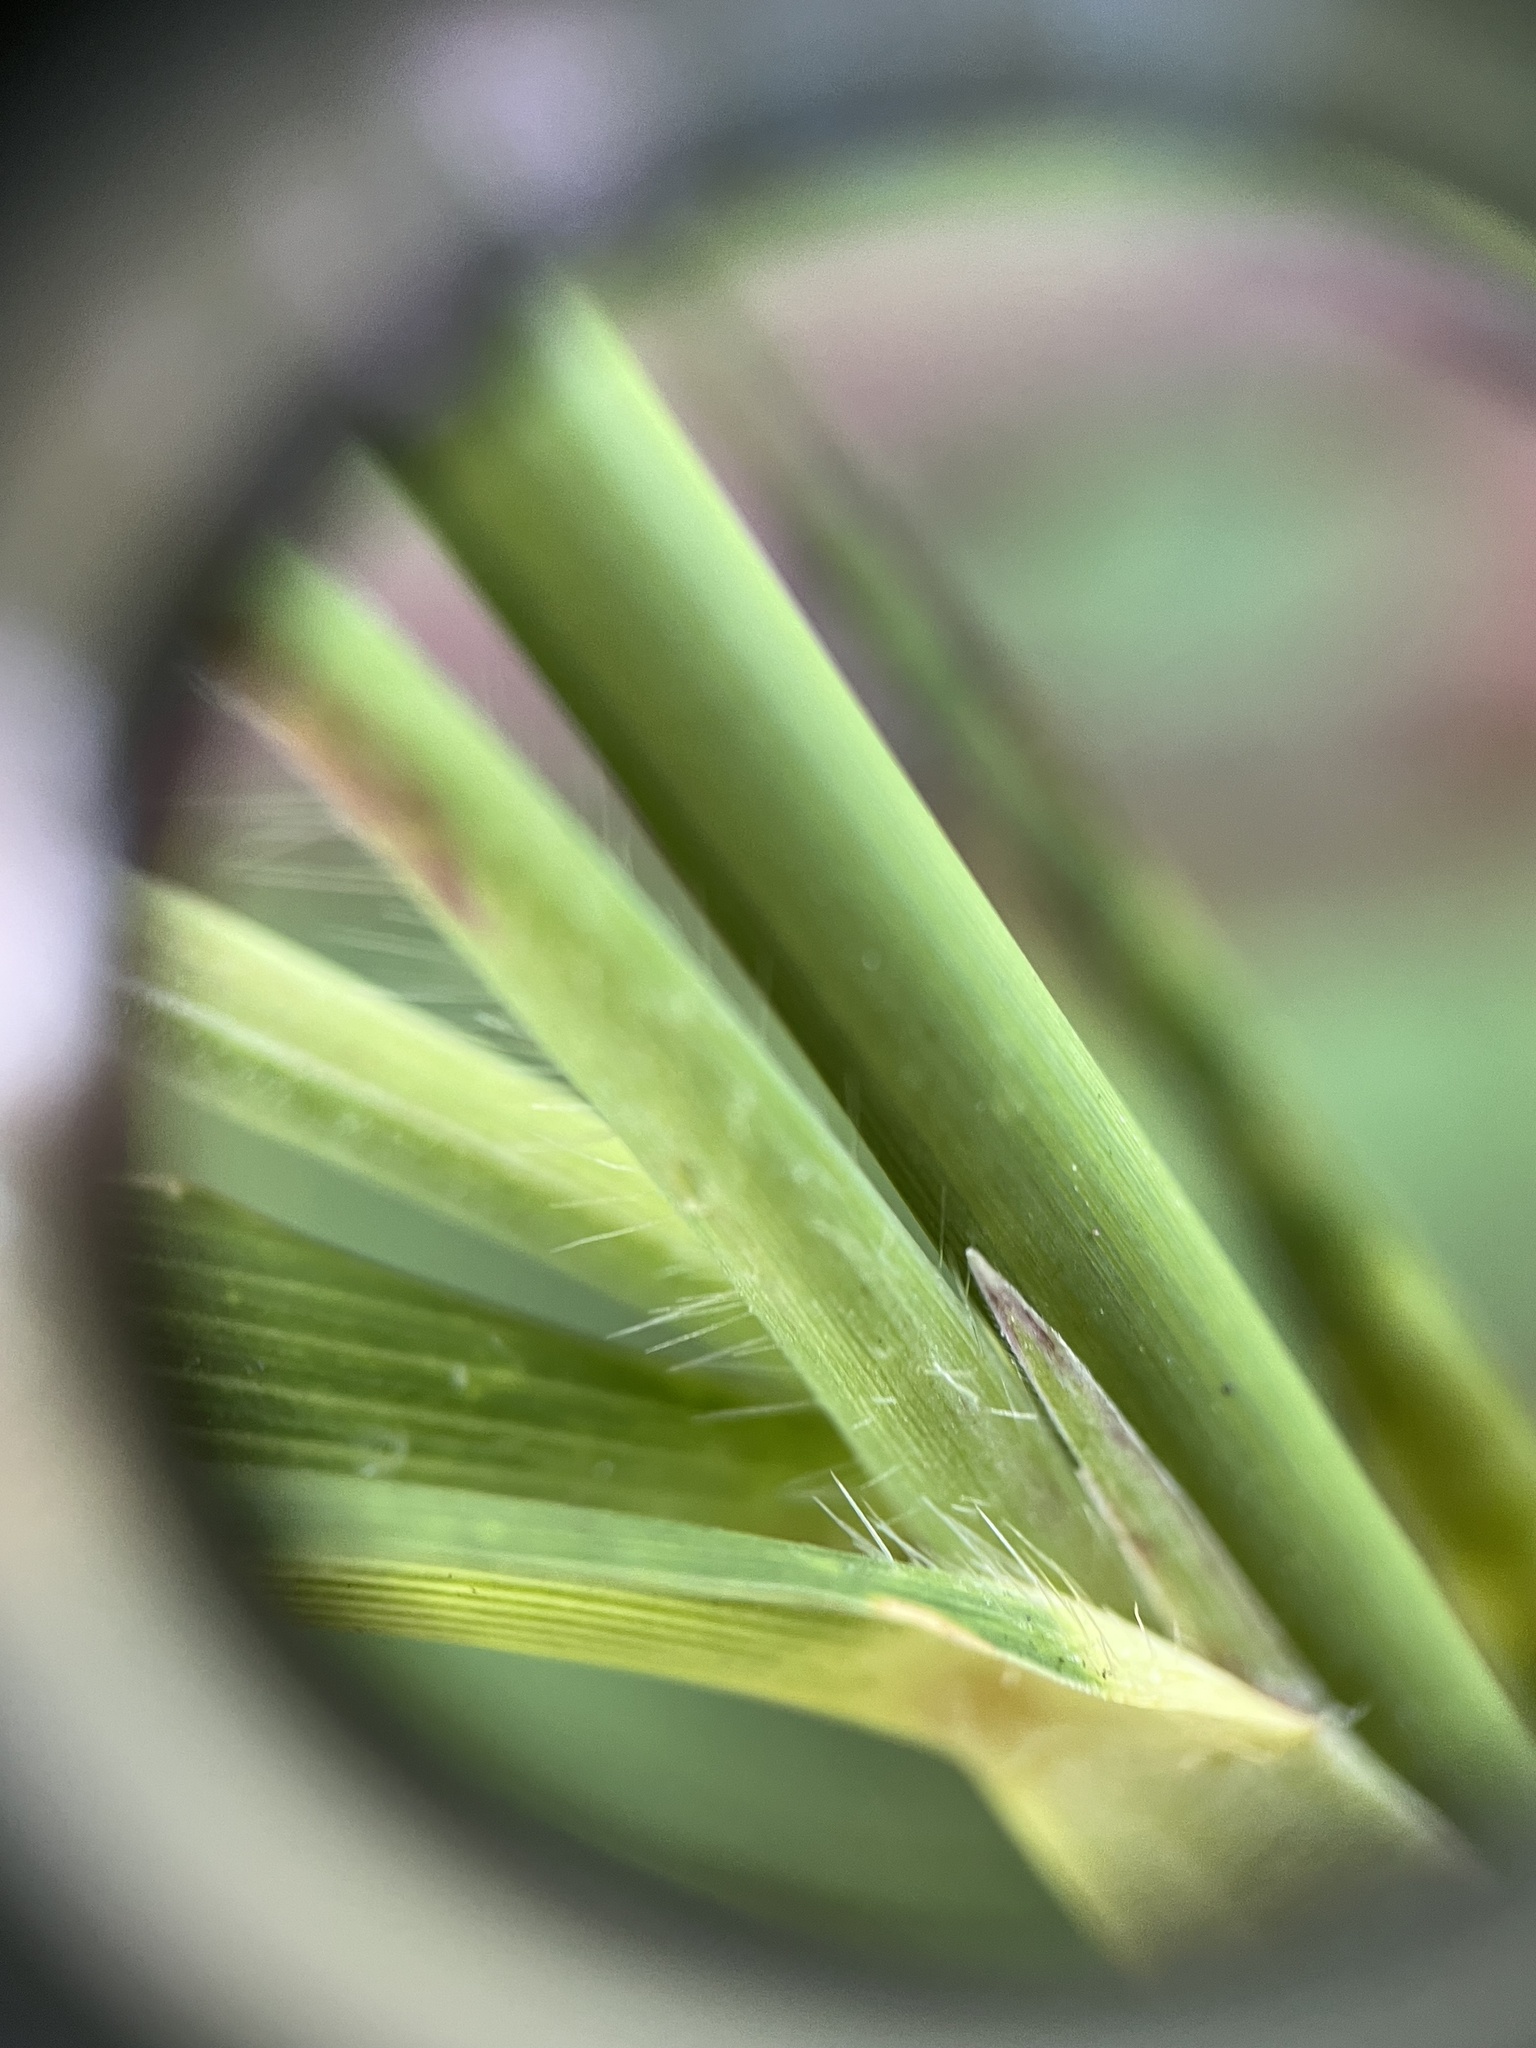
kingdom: Plantae
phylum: Tracheophyta
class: Liliopsida
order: Poales
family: Poaceae
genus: Rottboellia
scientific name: Rottboellia cochinchinensis
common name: Itchgrass
